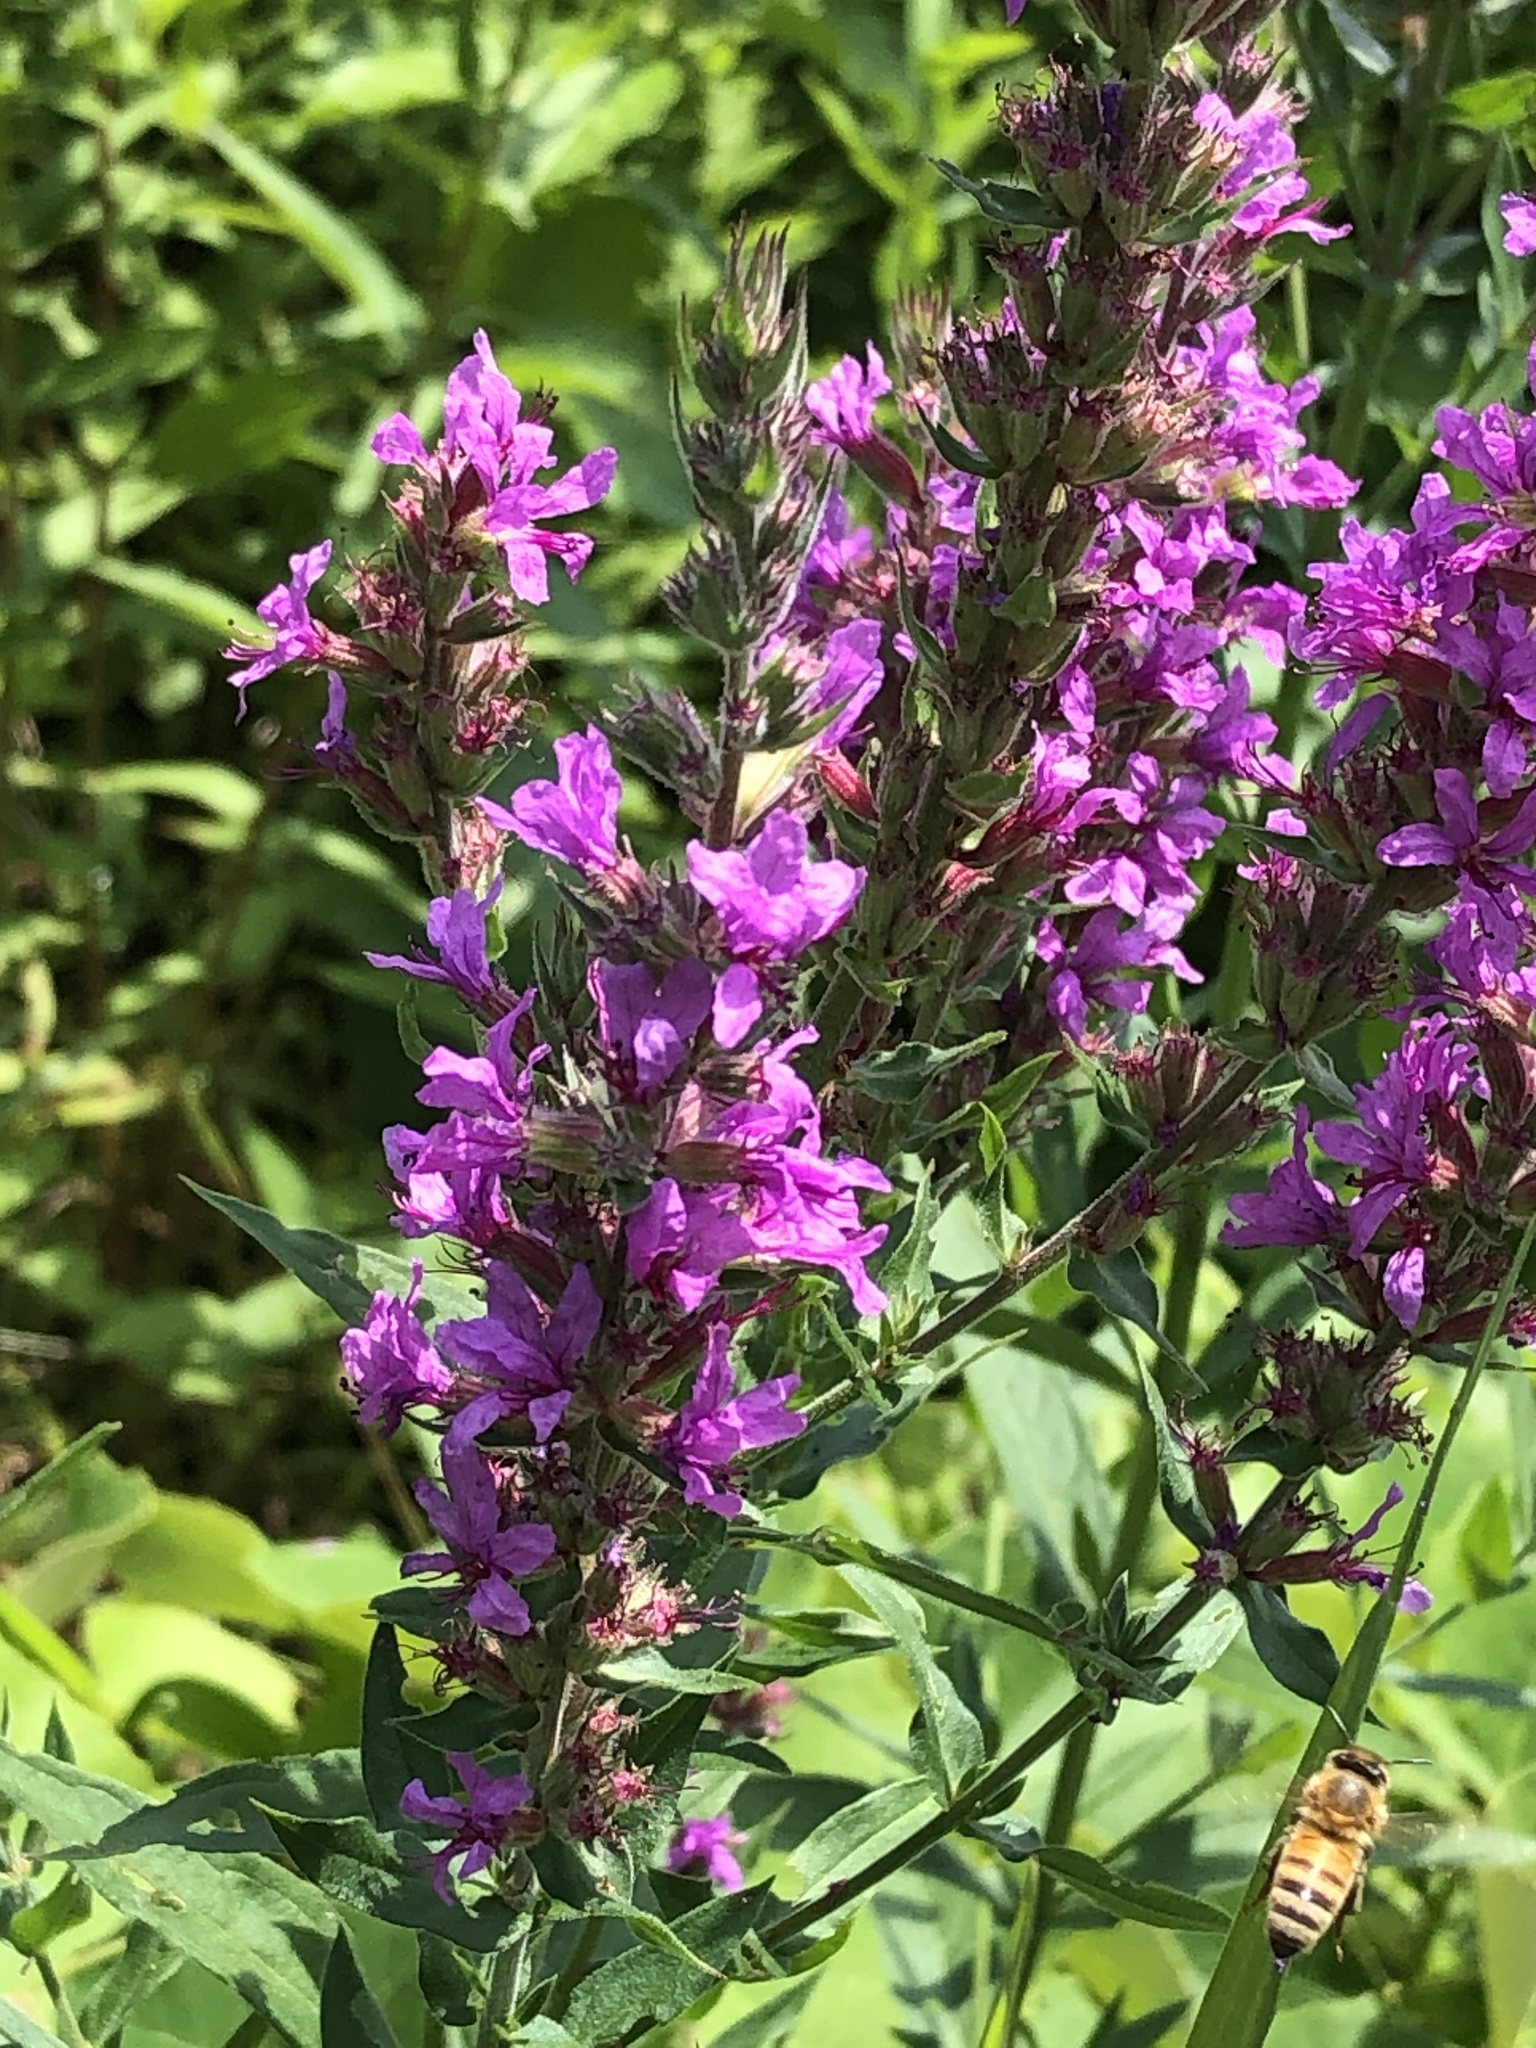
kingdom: Animalia
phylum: Arthropoda
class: Insecta
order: Hymenoptera
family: Apidae
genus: Apis
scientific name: Apis mellifera
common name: Honey bee
